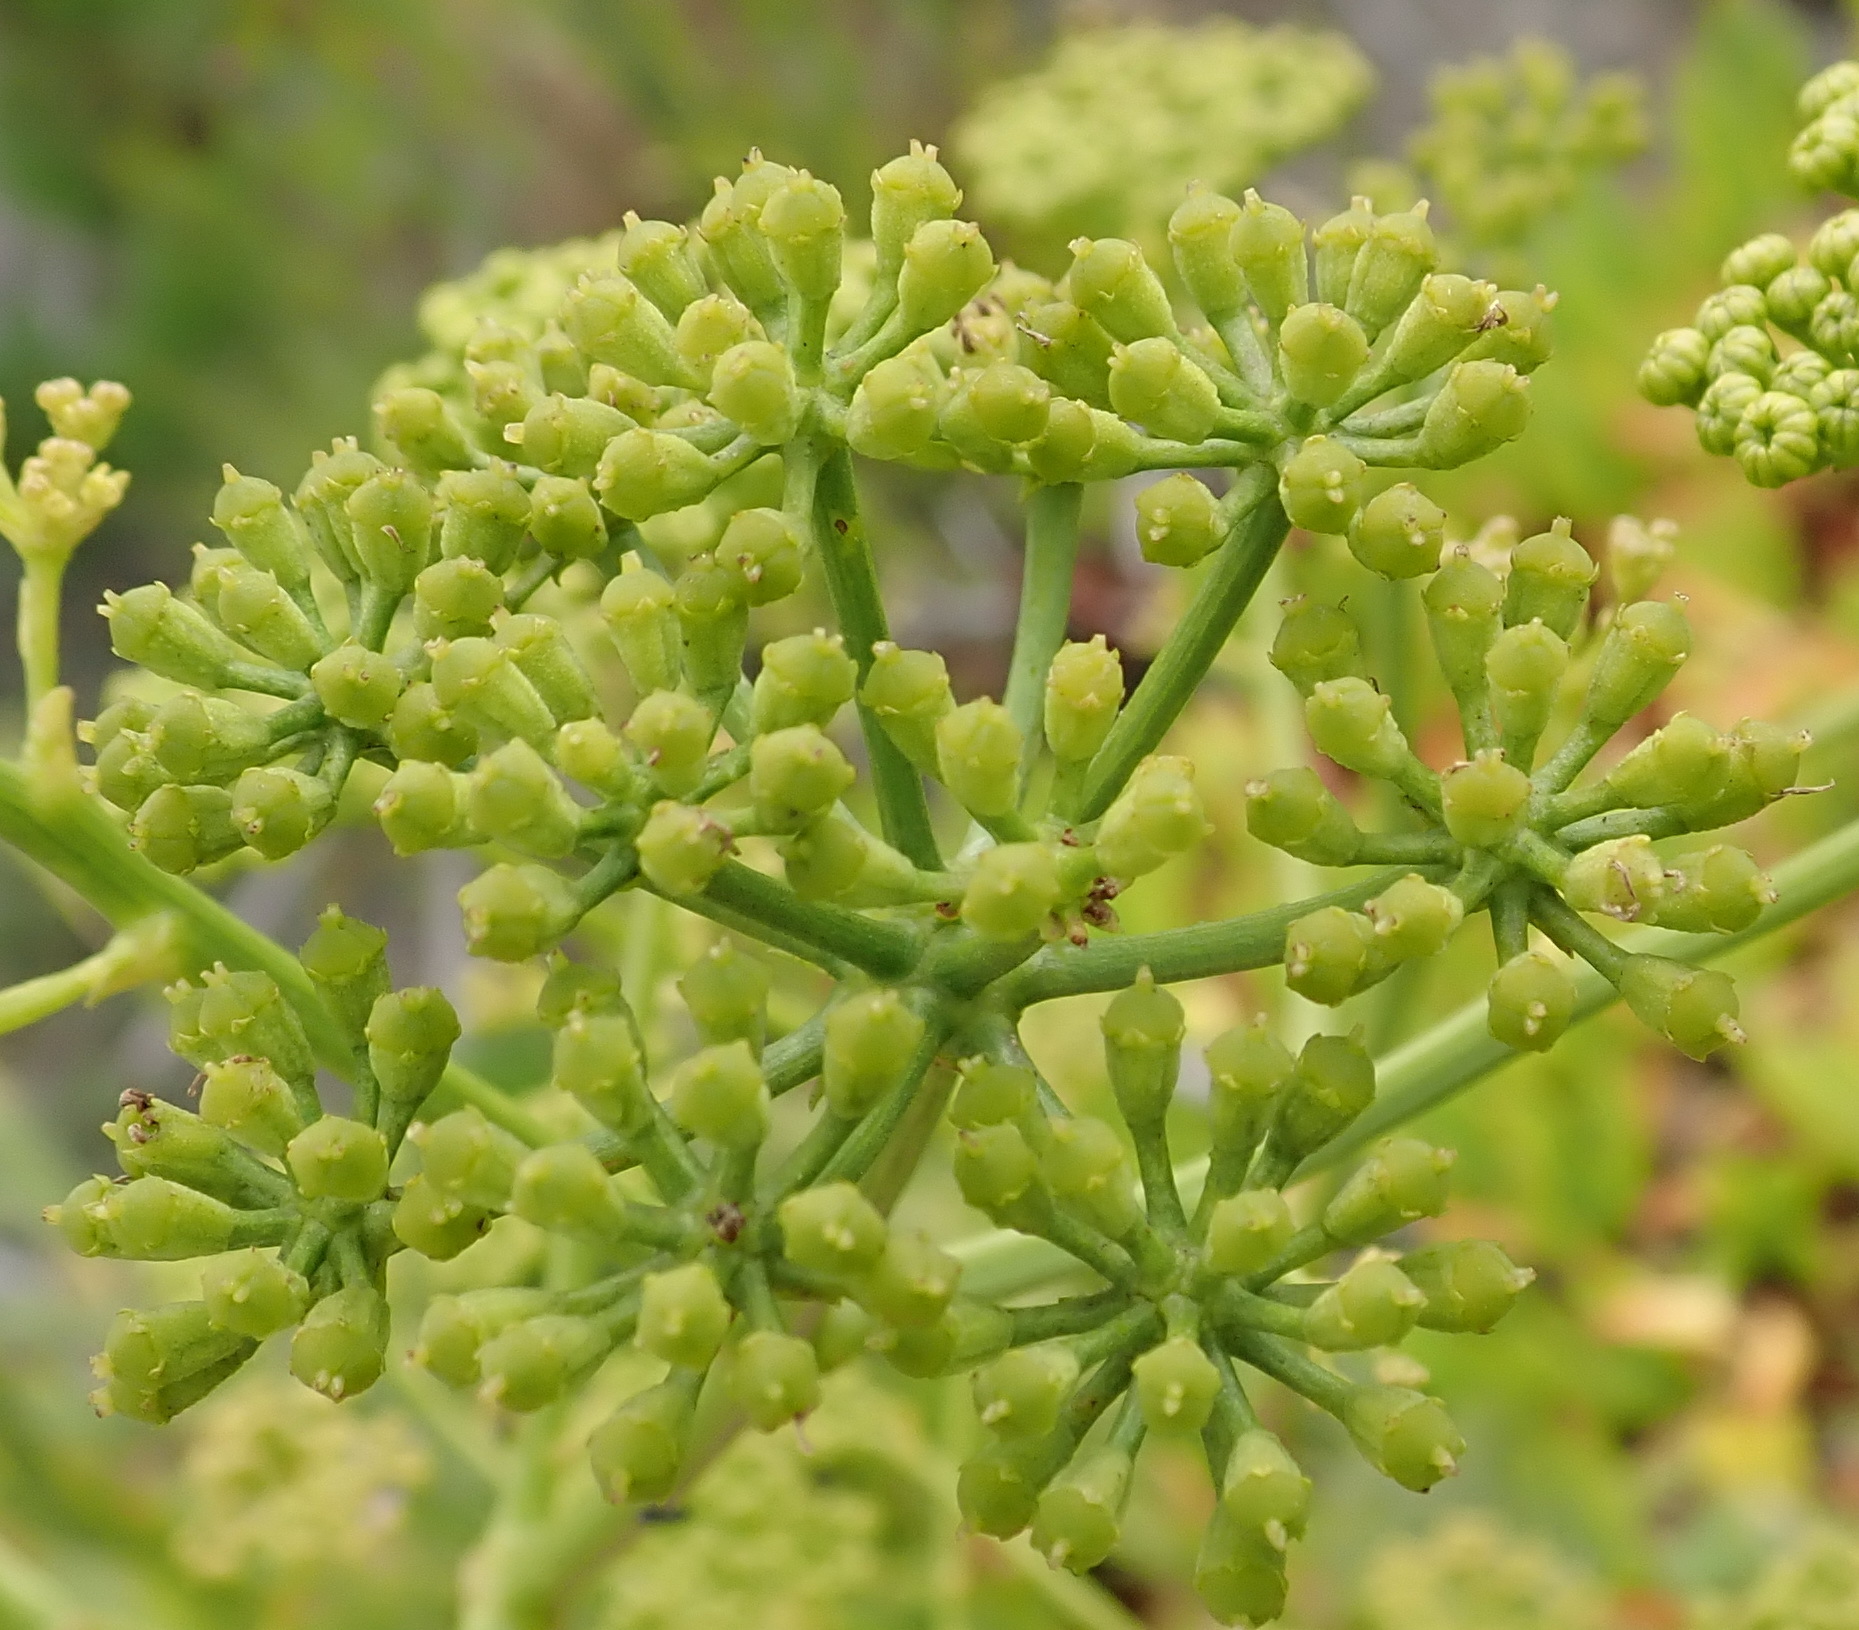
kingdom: Plantae
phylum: Tracheophyta
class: Magnoliopsida
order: Apiales
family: Apiaceae
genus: Anginon
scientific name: Anginon difforme
